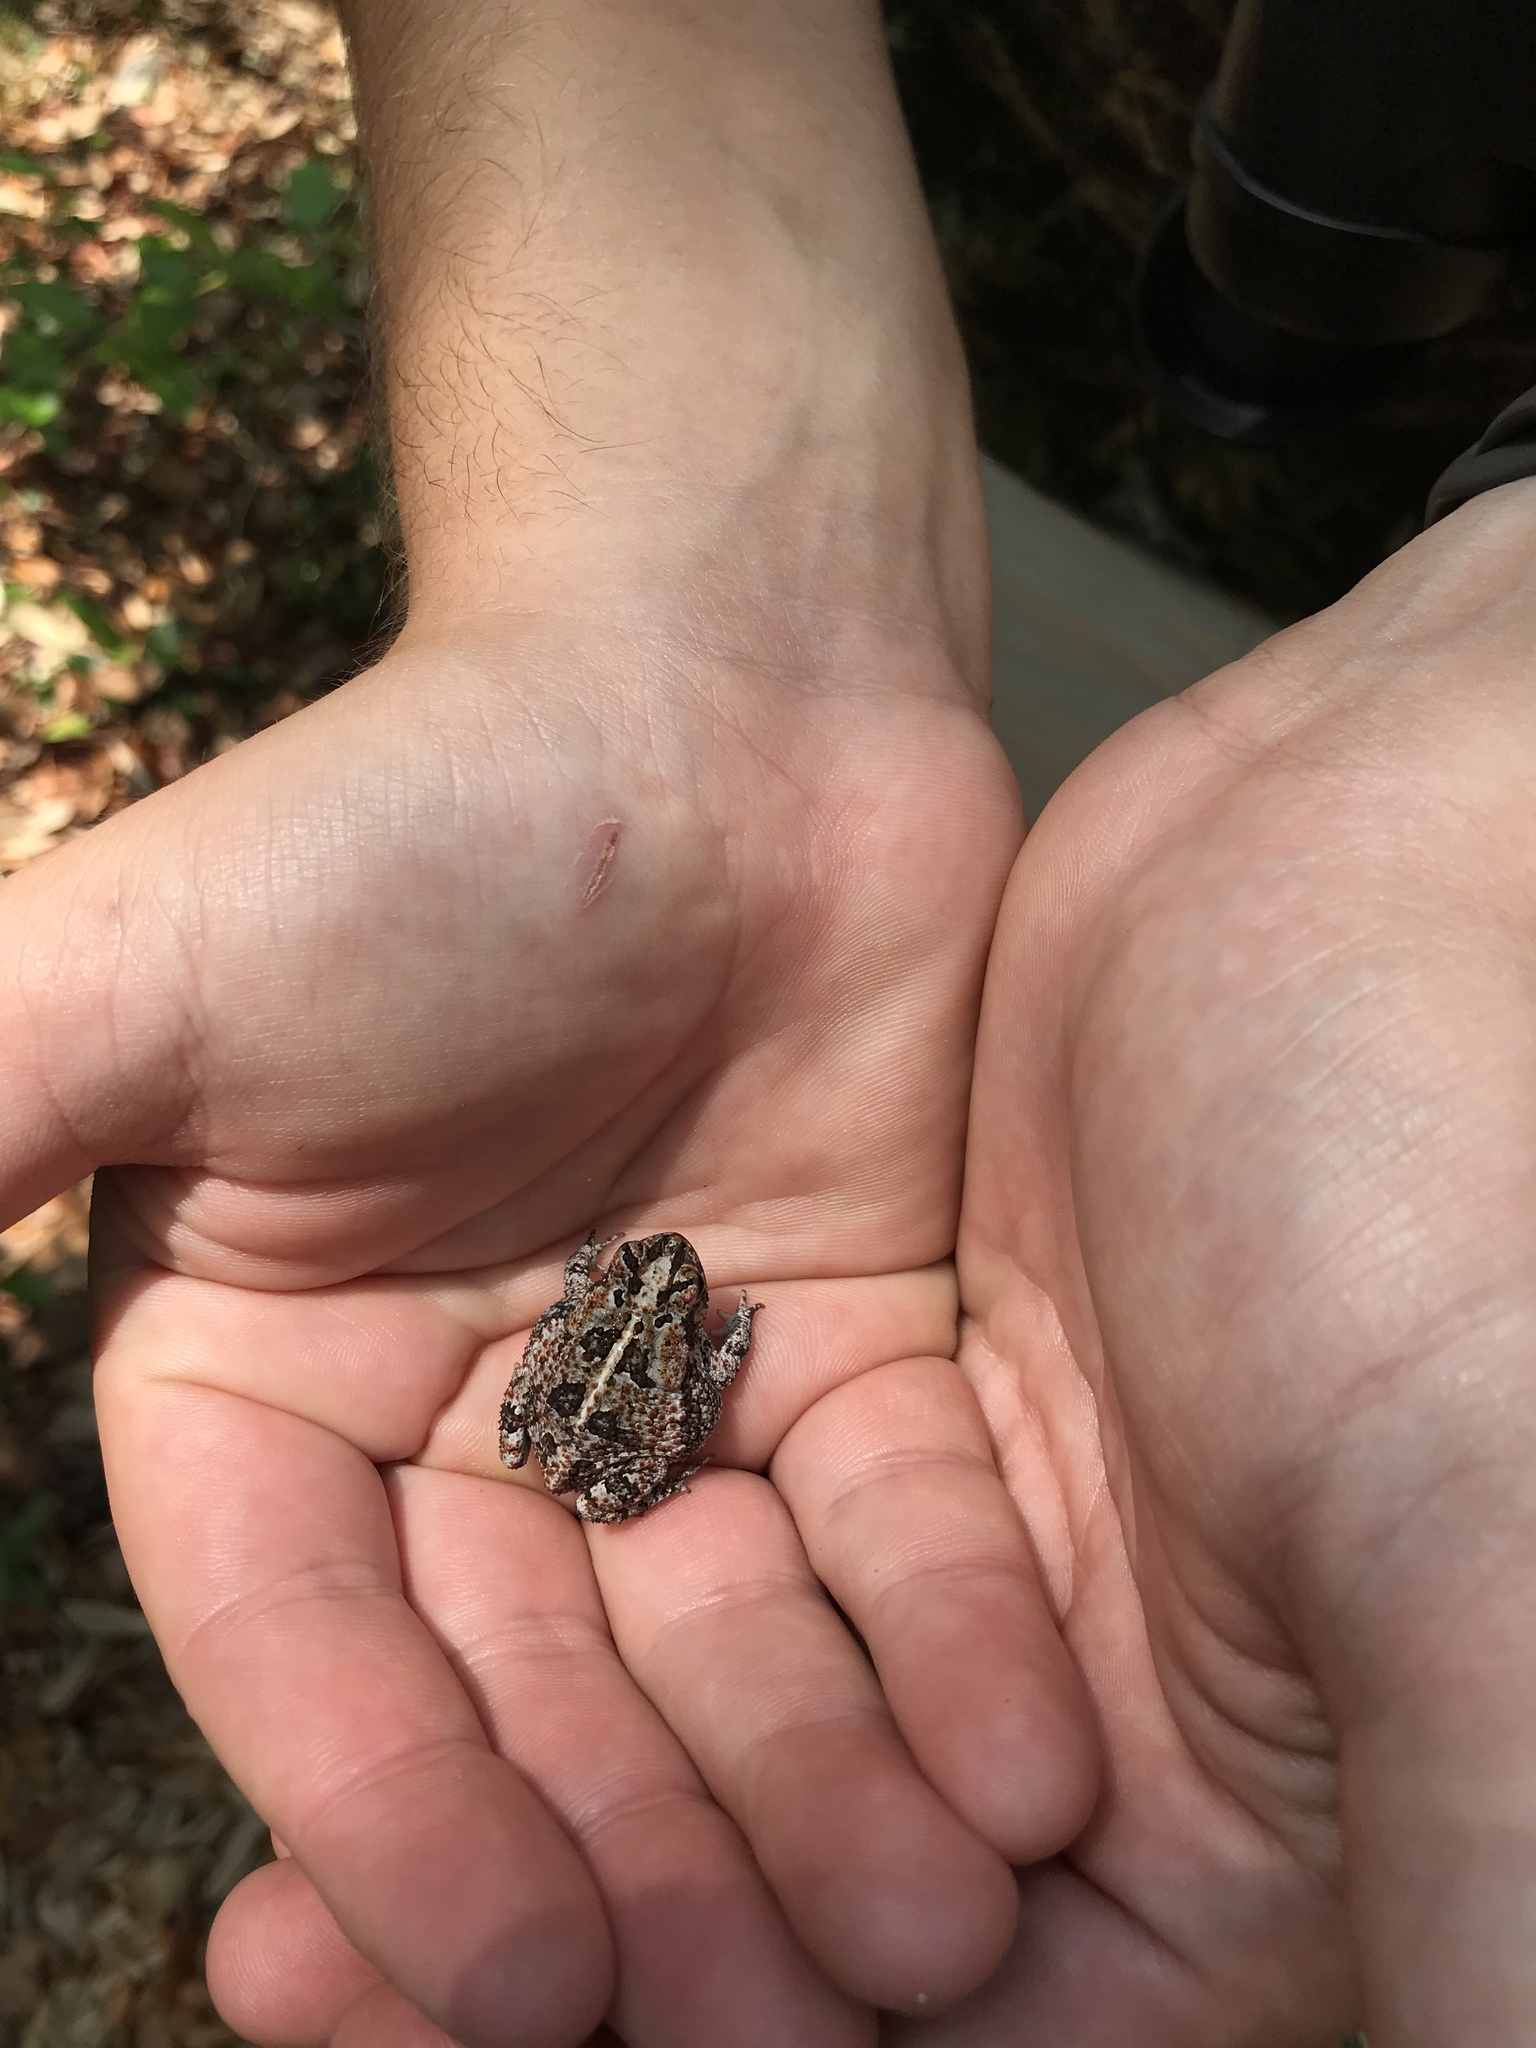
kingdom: Animalia
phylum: Chordata
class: Amphibia
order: Anura
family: Bufonidae
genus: Anaxyrus
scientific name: Anaxyrus quercicus
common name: Oak toad
